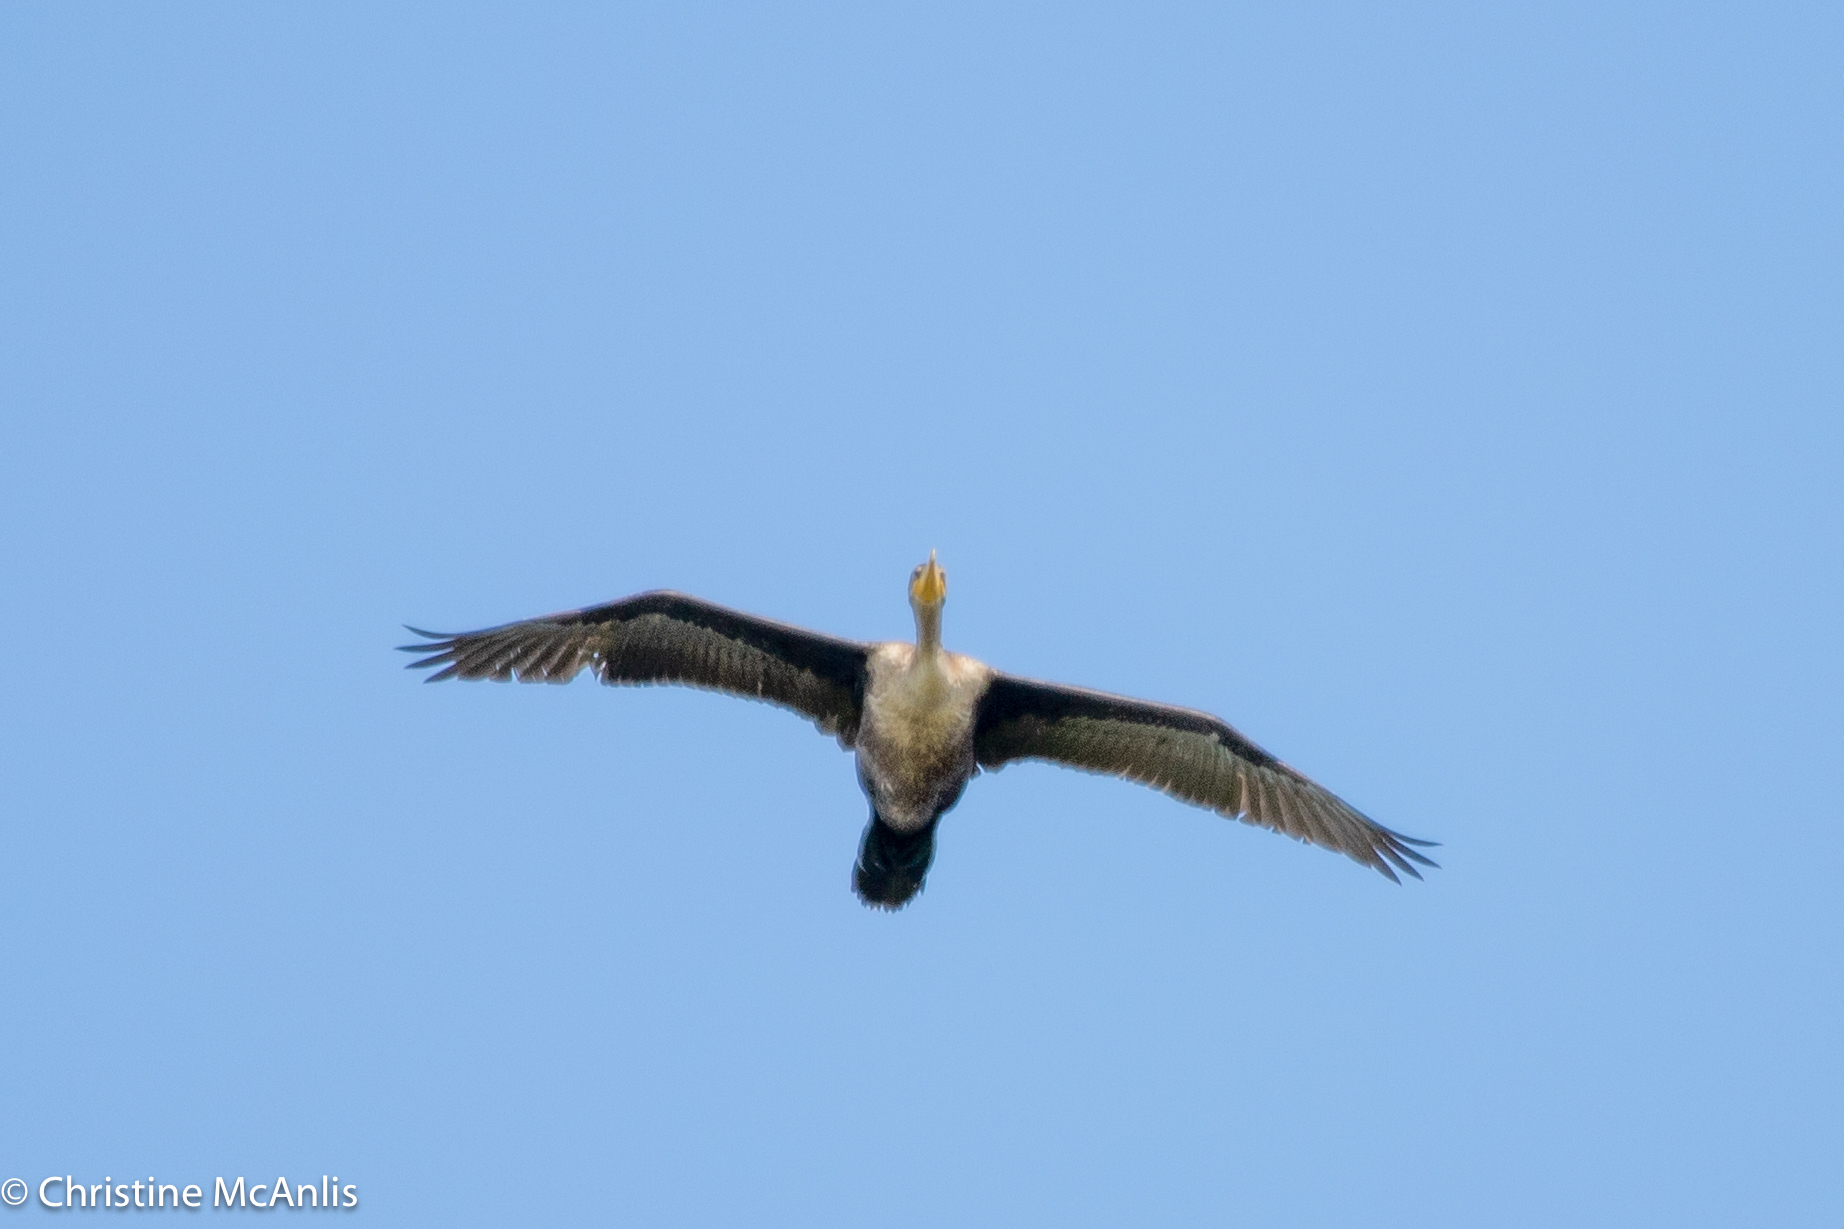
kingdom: Animalia
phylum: Chordata
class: Aves
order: Suliformes
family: Phalacrocoracidae
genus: Phalacrocorax
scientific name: Phalacrocorax auritus
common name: Double-crested cormorant
